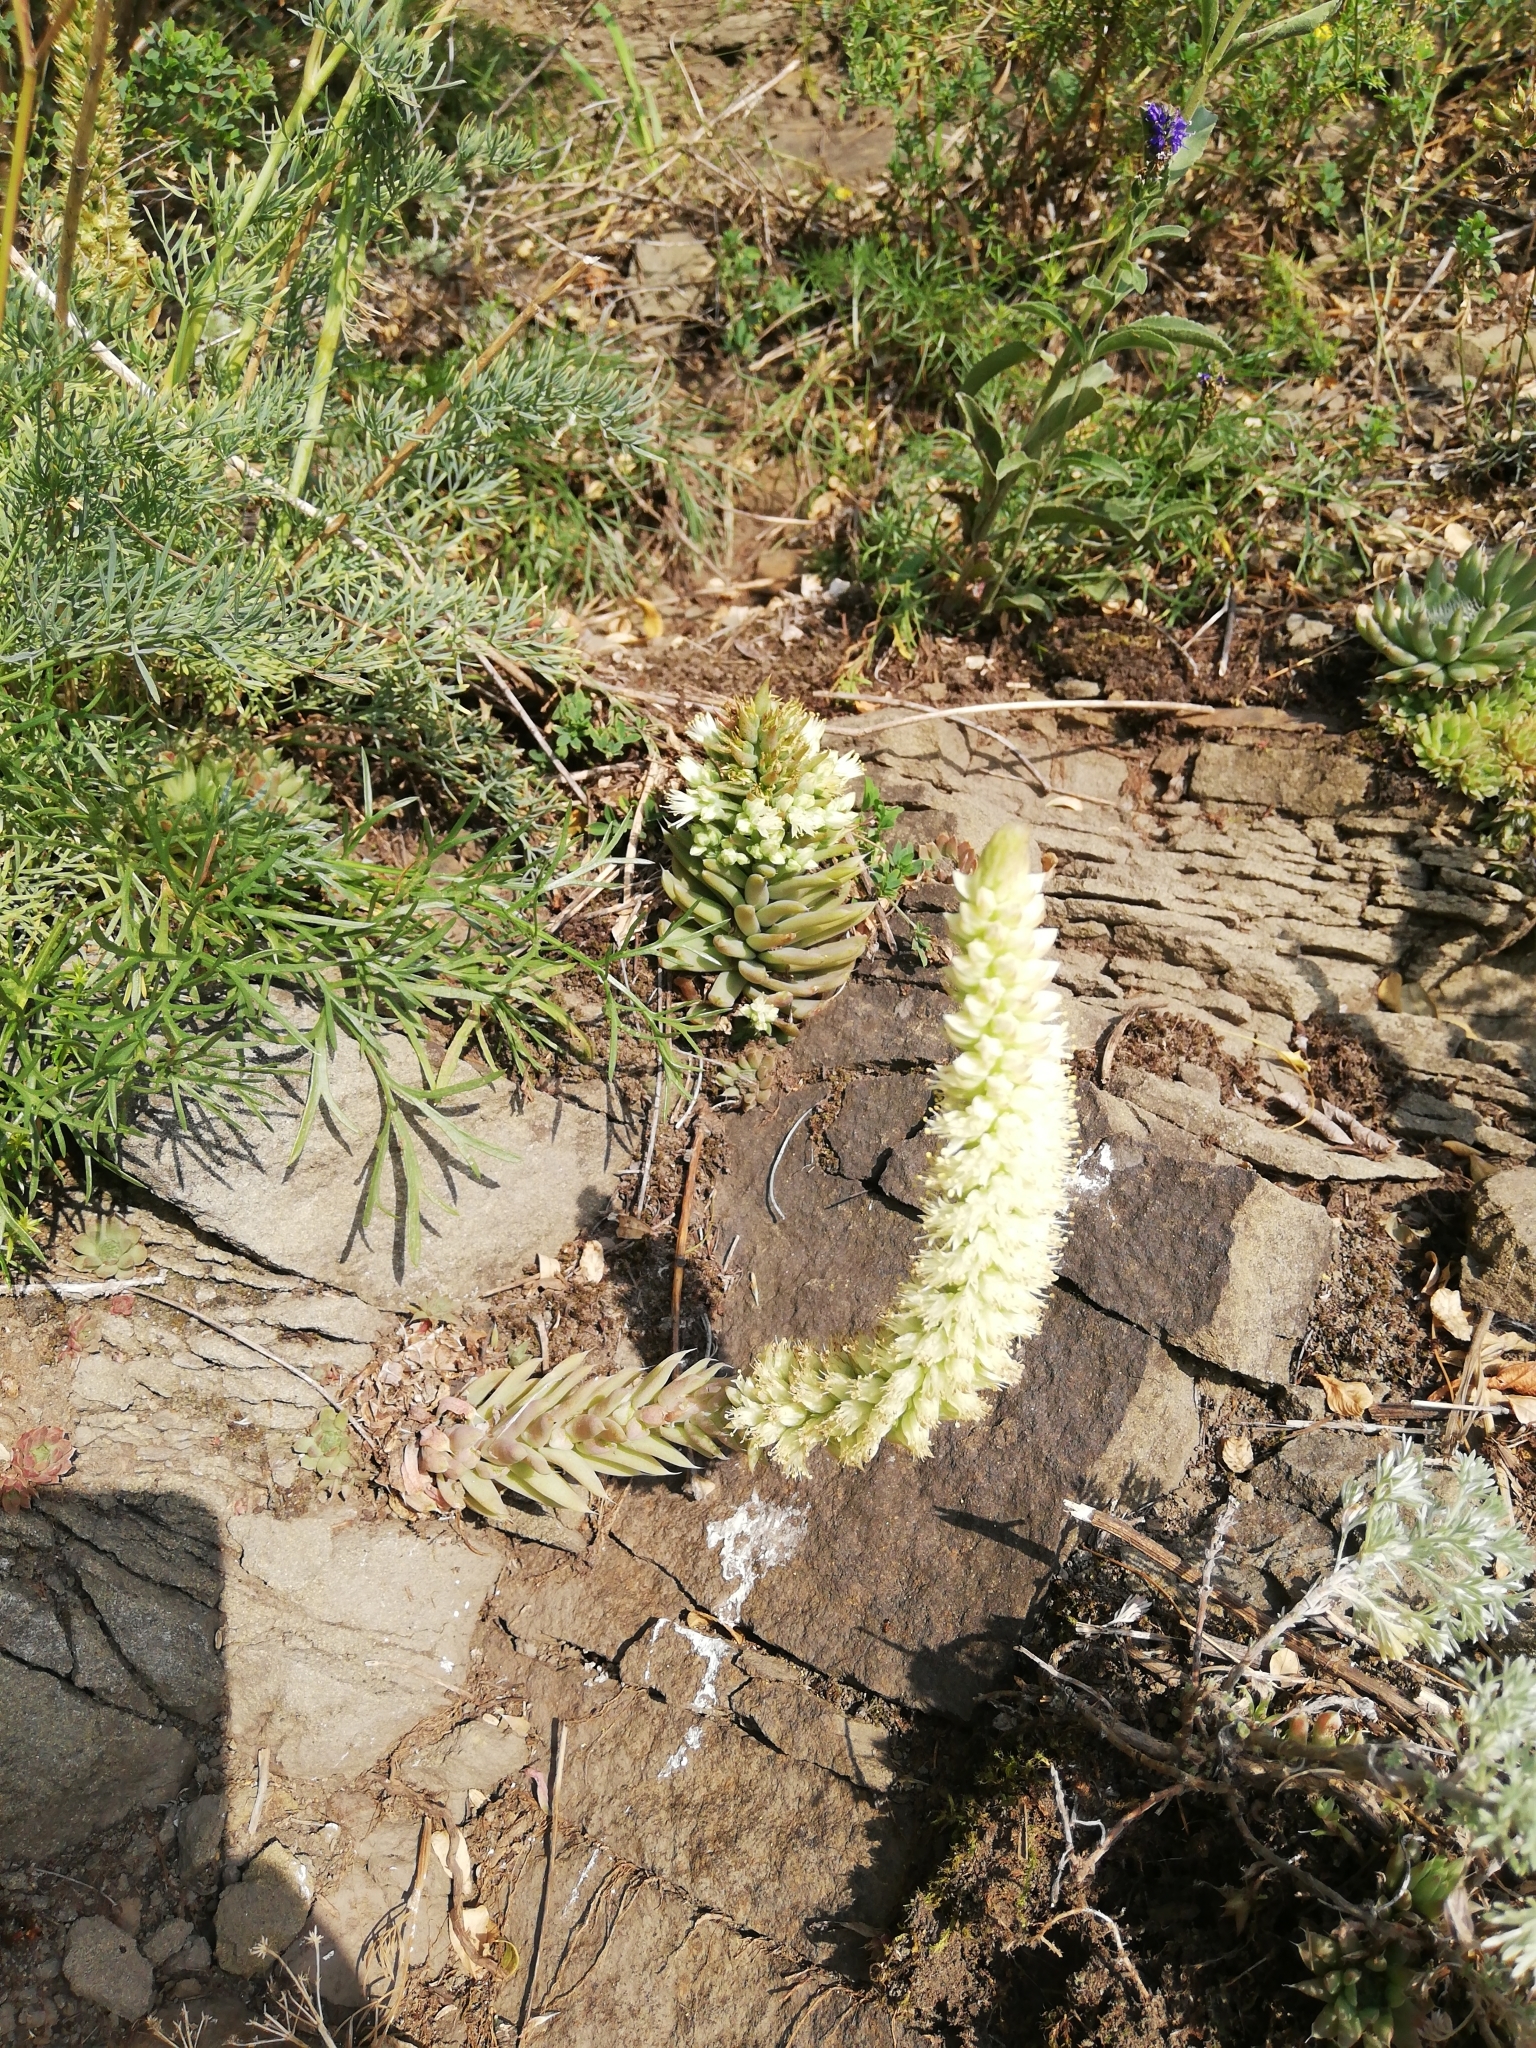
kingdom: Plantae
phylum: Tracheophyta
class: Magnoliopsida
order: Saxifragales
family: Crassulaceae
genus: Orostachys
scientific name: Orostachys spinosa
